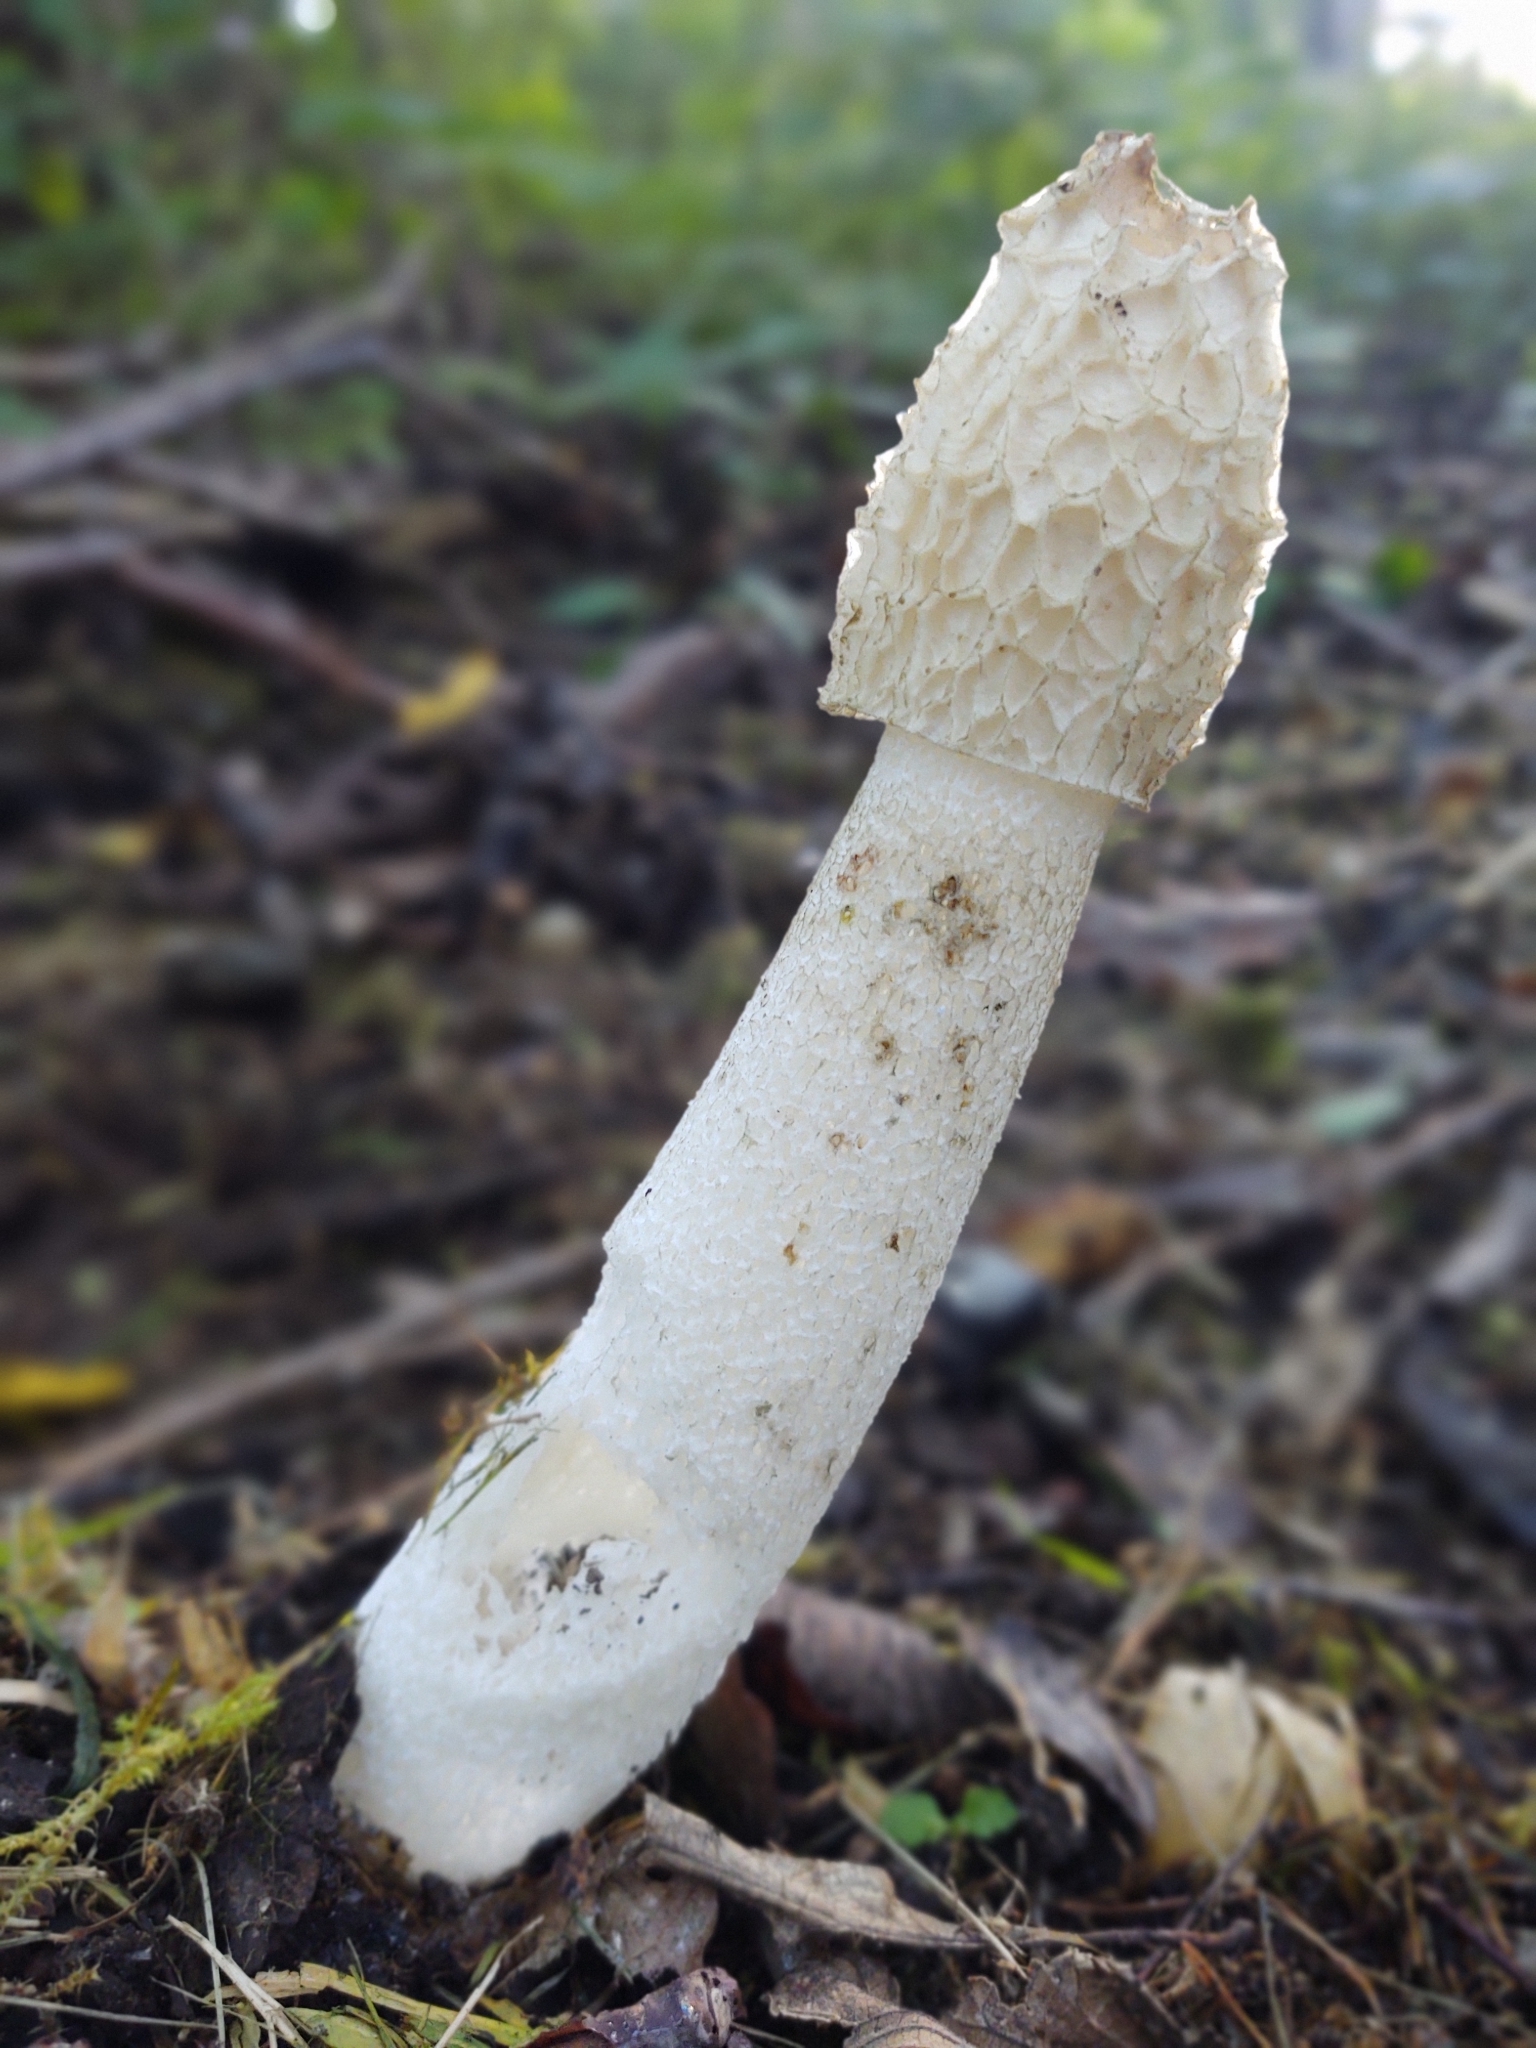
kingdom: Fungi
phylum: Basidiomycota
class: Agaricomycetes
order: Phallales
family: Phallaceae
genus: Phallus
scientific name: Phallus impudicus
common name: Common stinkhorn
